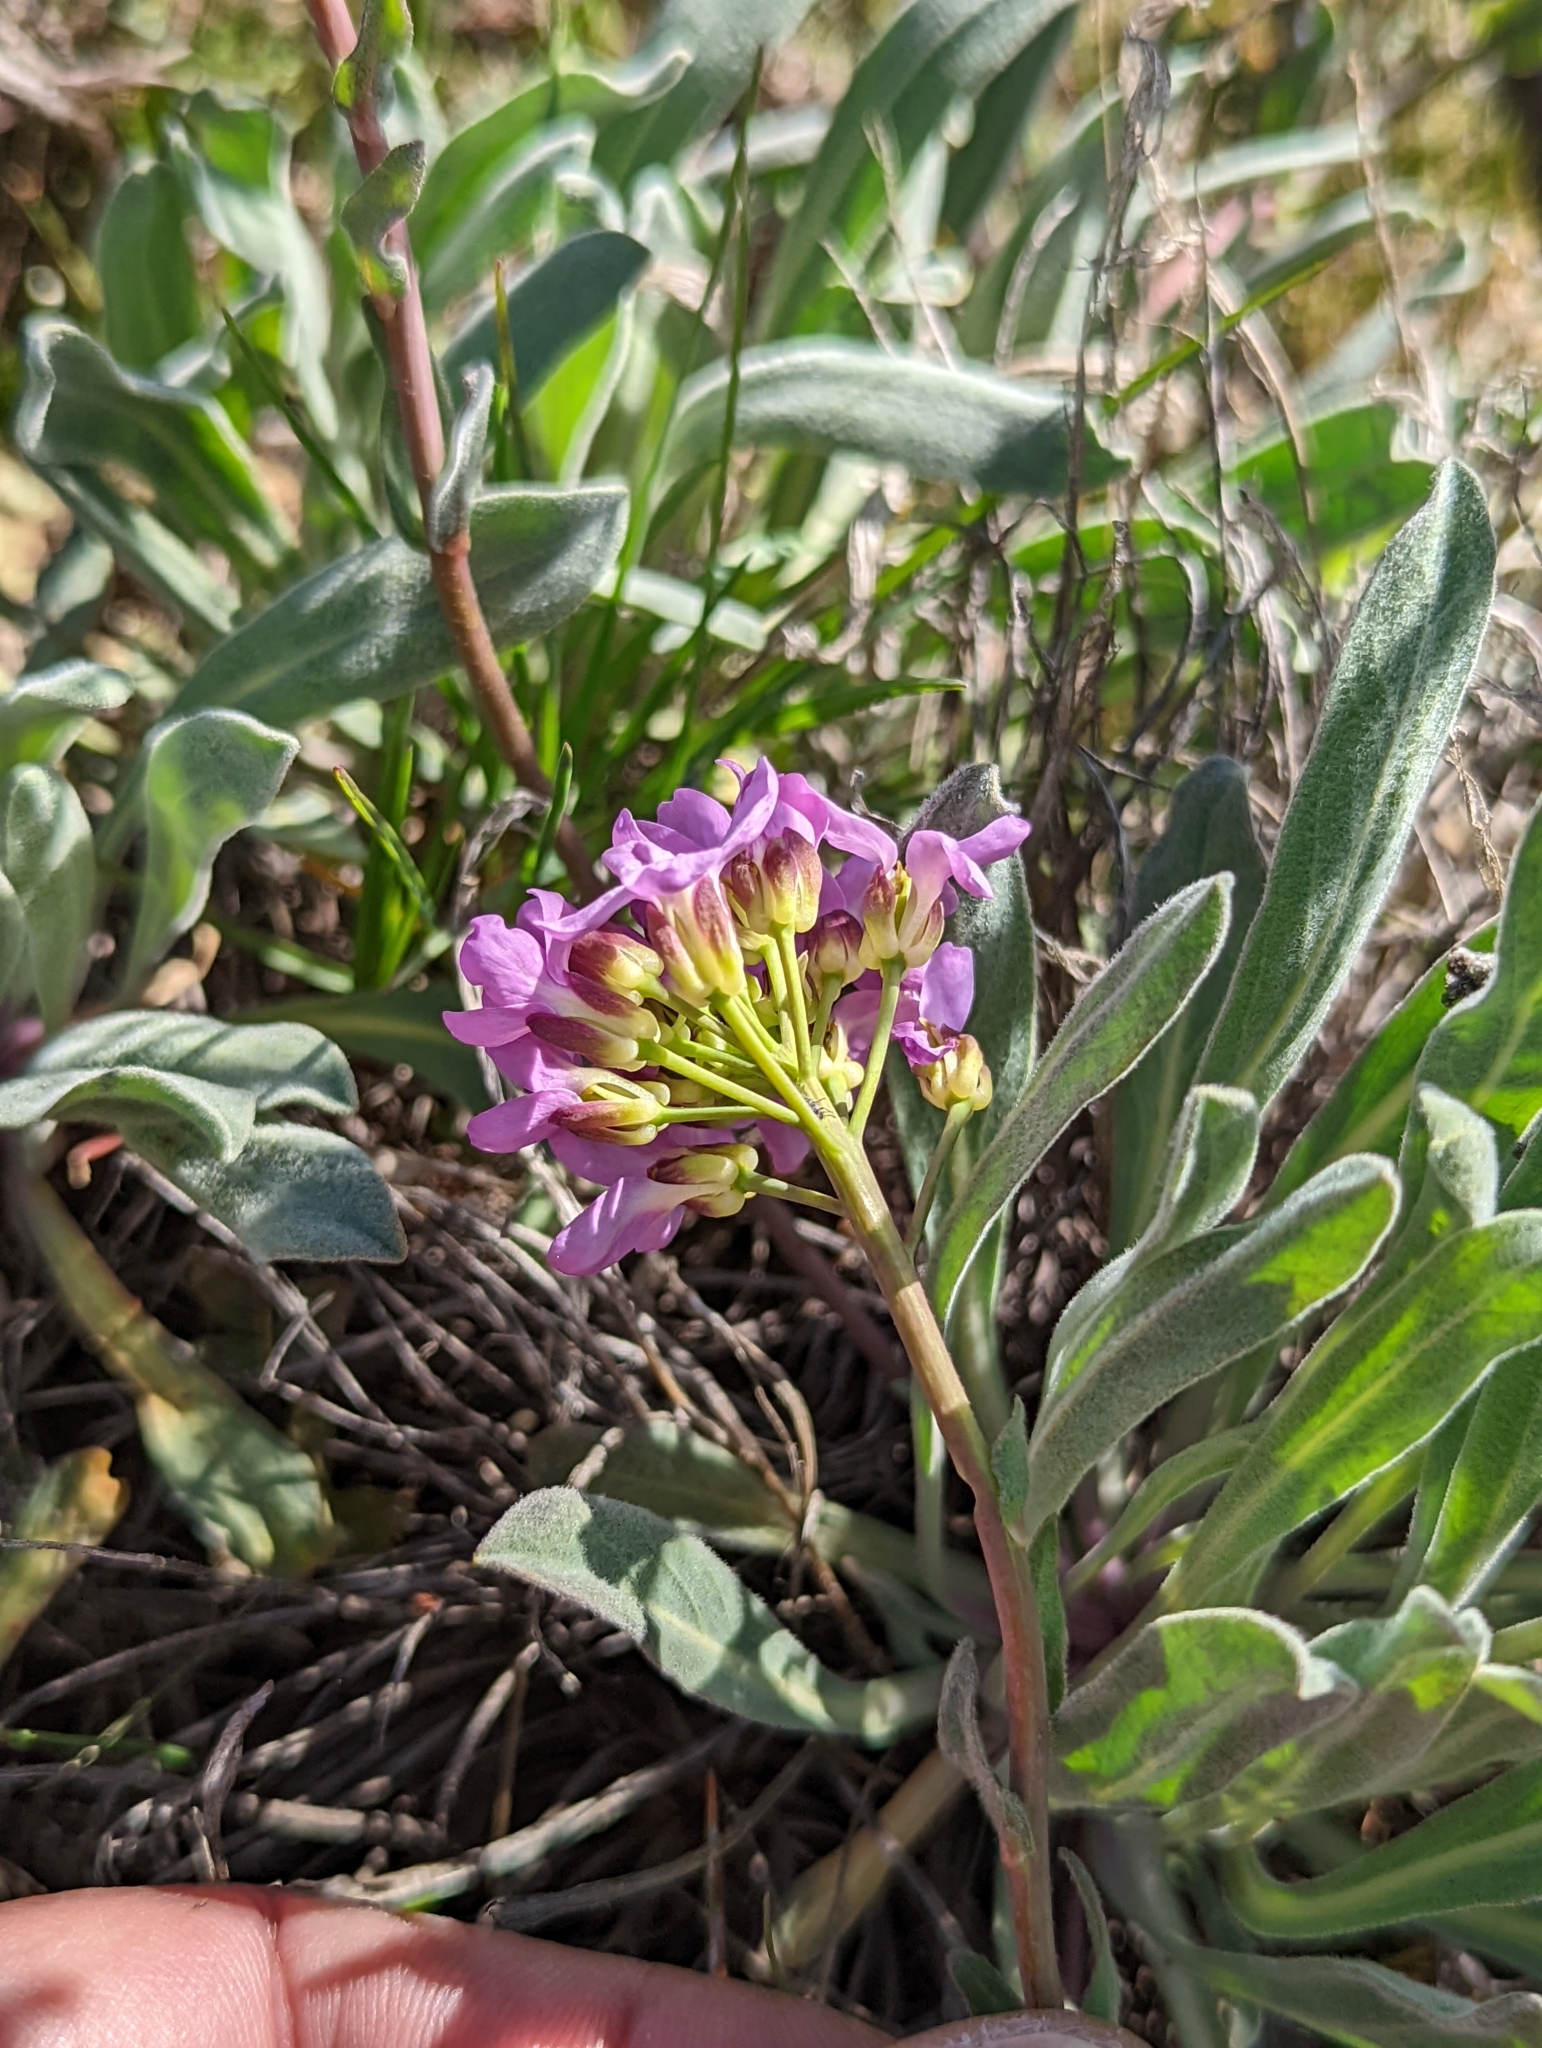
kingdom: Plantae
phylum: Tracheophyta
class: Magnoliopsida
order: Brassicales
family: Brassicaceae
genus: Phoenicaulis
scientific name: Phoenicaulis cheiranthoides
